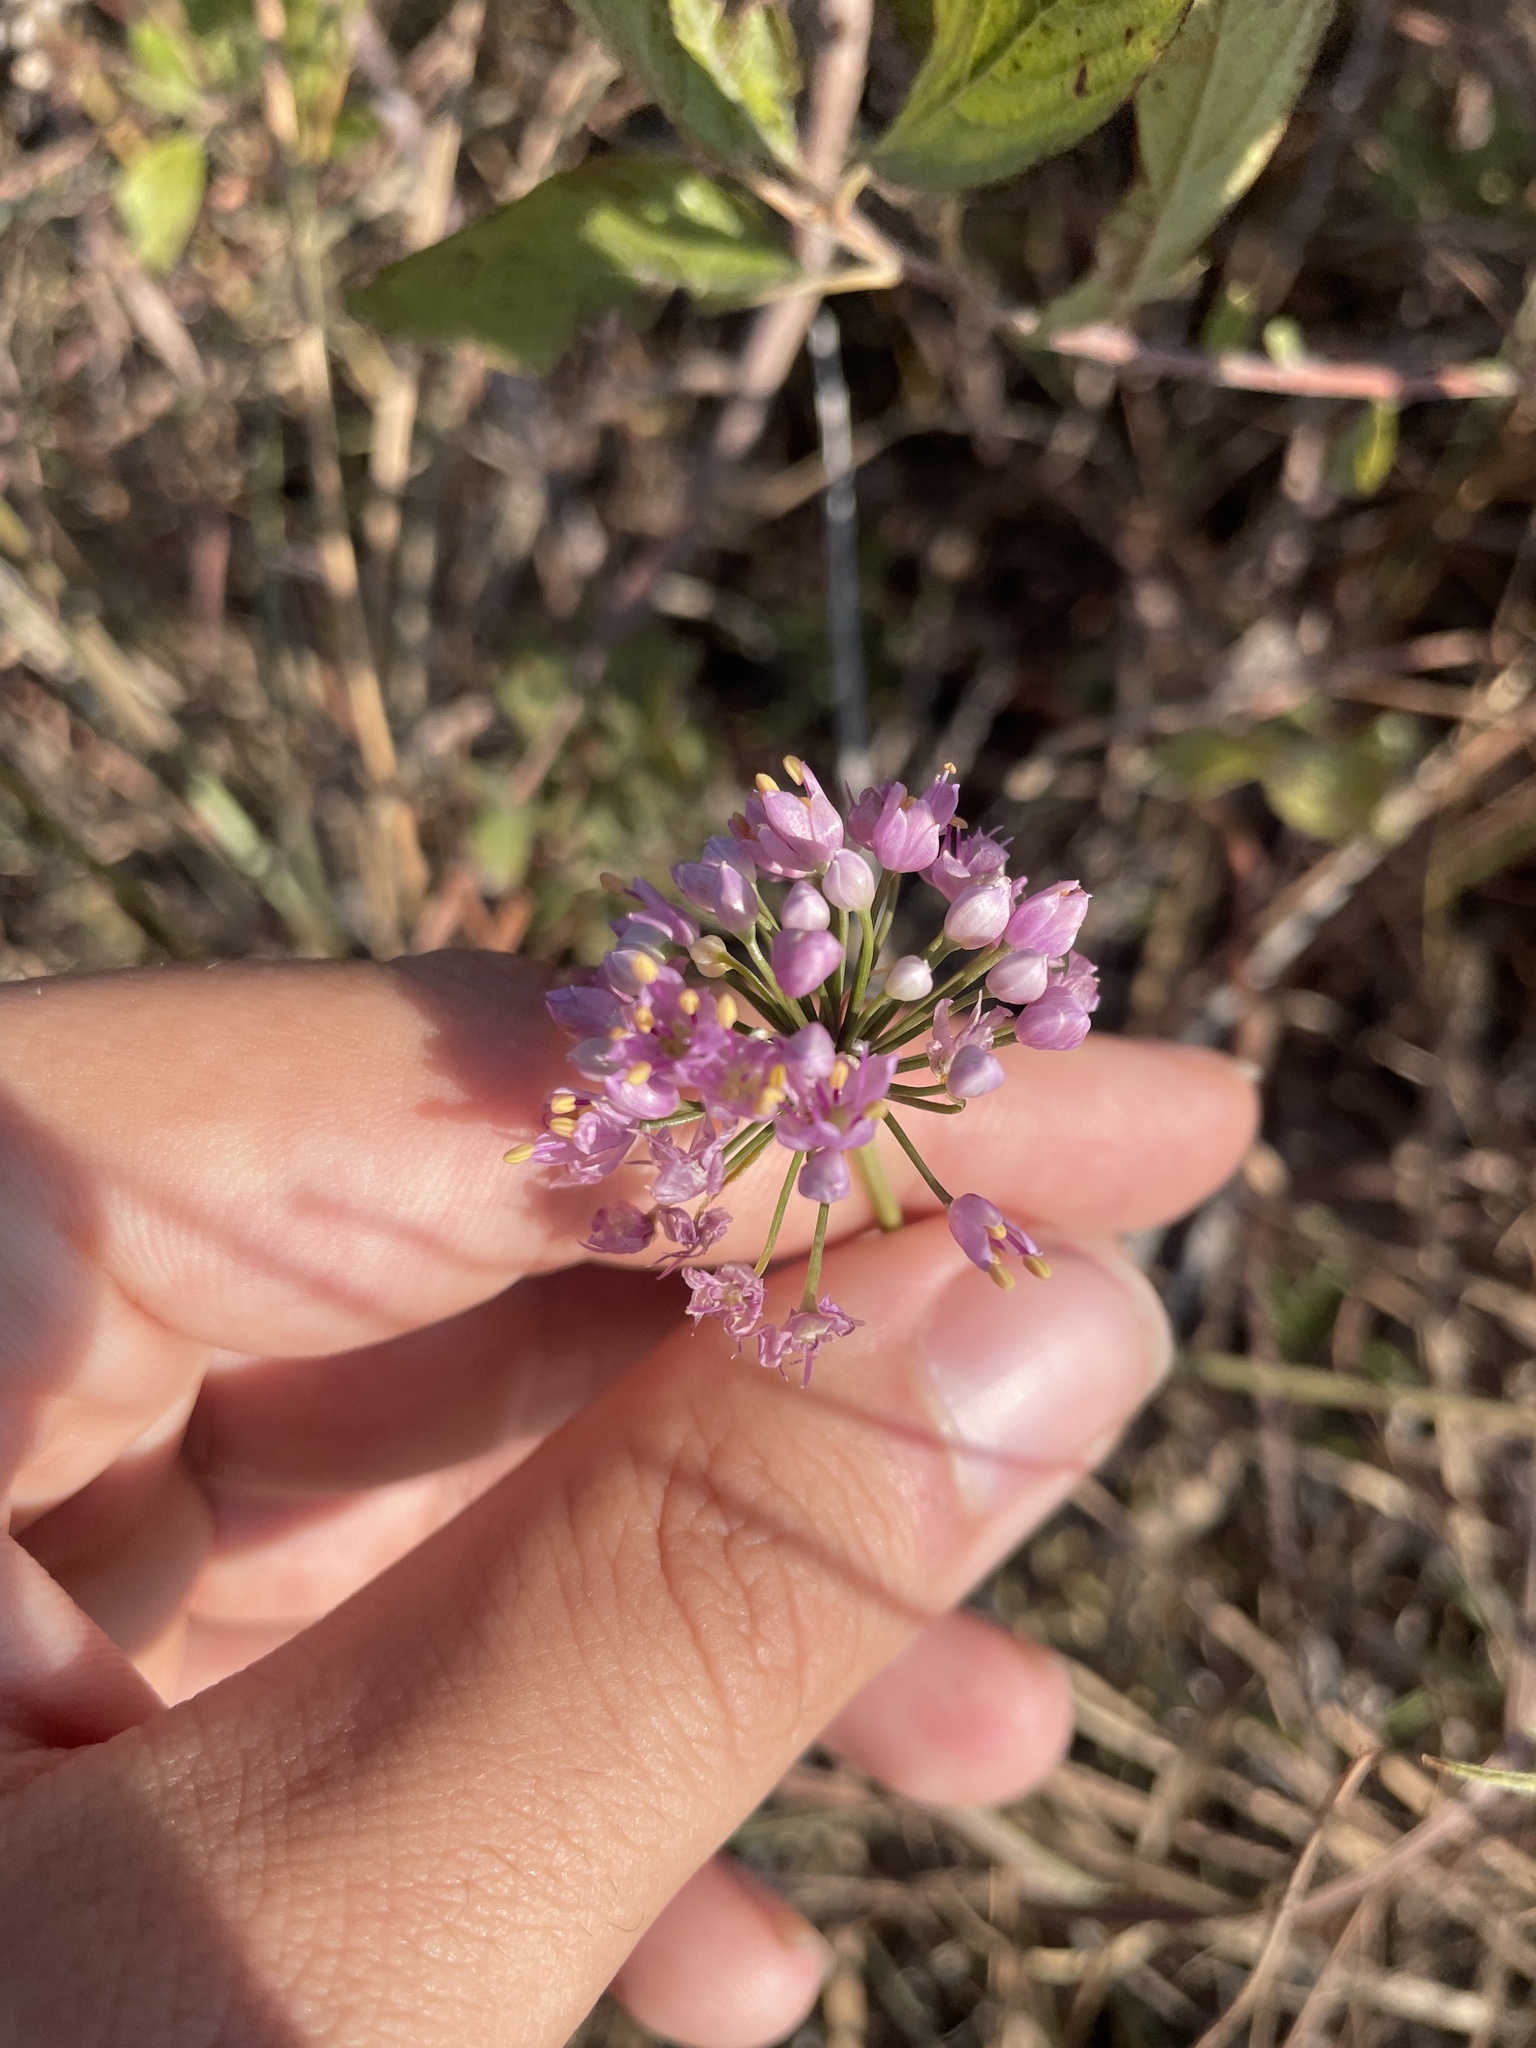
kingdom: Plantae
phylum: Tracheophyta
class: Liliopsida
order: Asparagales
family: Amaryllidaceae
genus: Allium
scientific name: Allium stellatum
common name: Autumn onion
